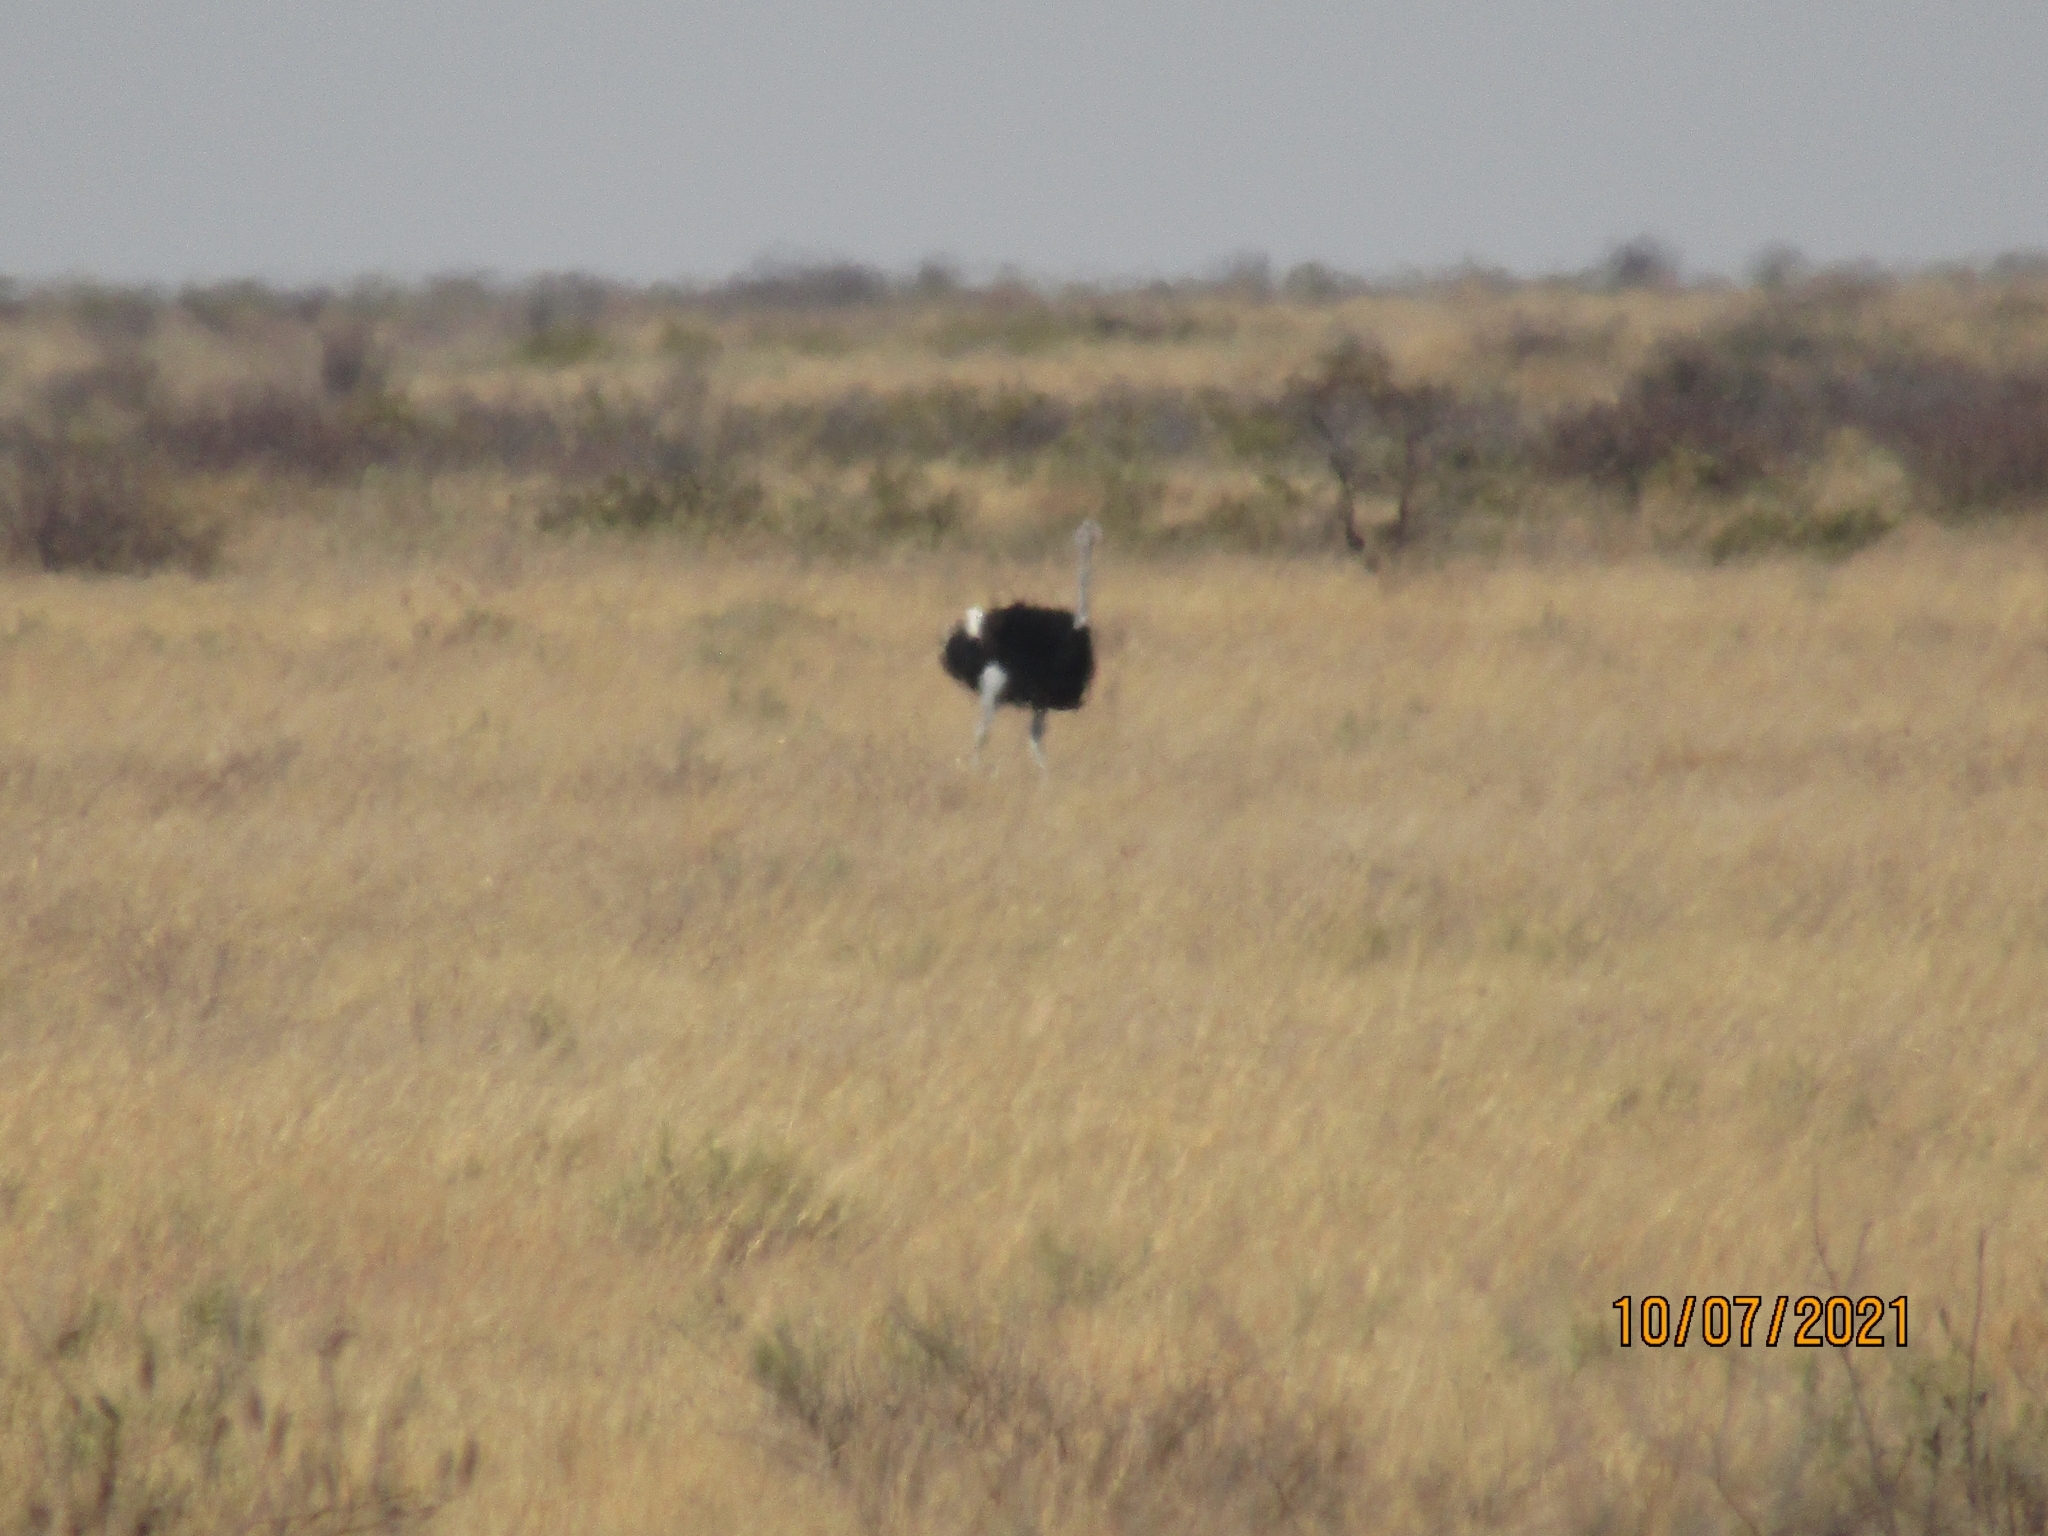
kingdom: Animalia
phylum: Chordata
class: Aves
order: Struthioniformes
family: Struthionidae
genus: Struthio
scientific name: Struthio camelus
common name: Common ostrich
